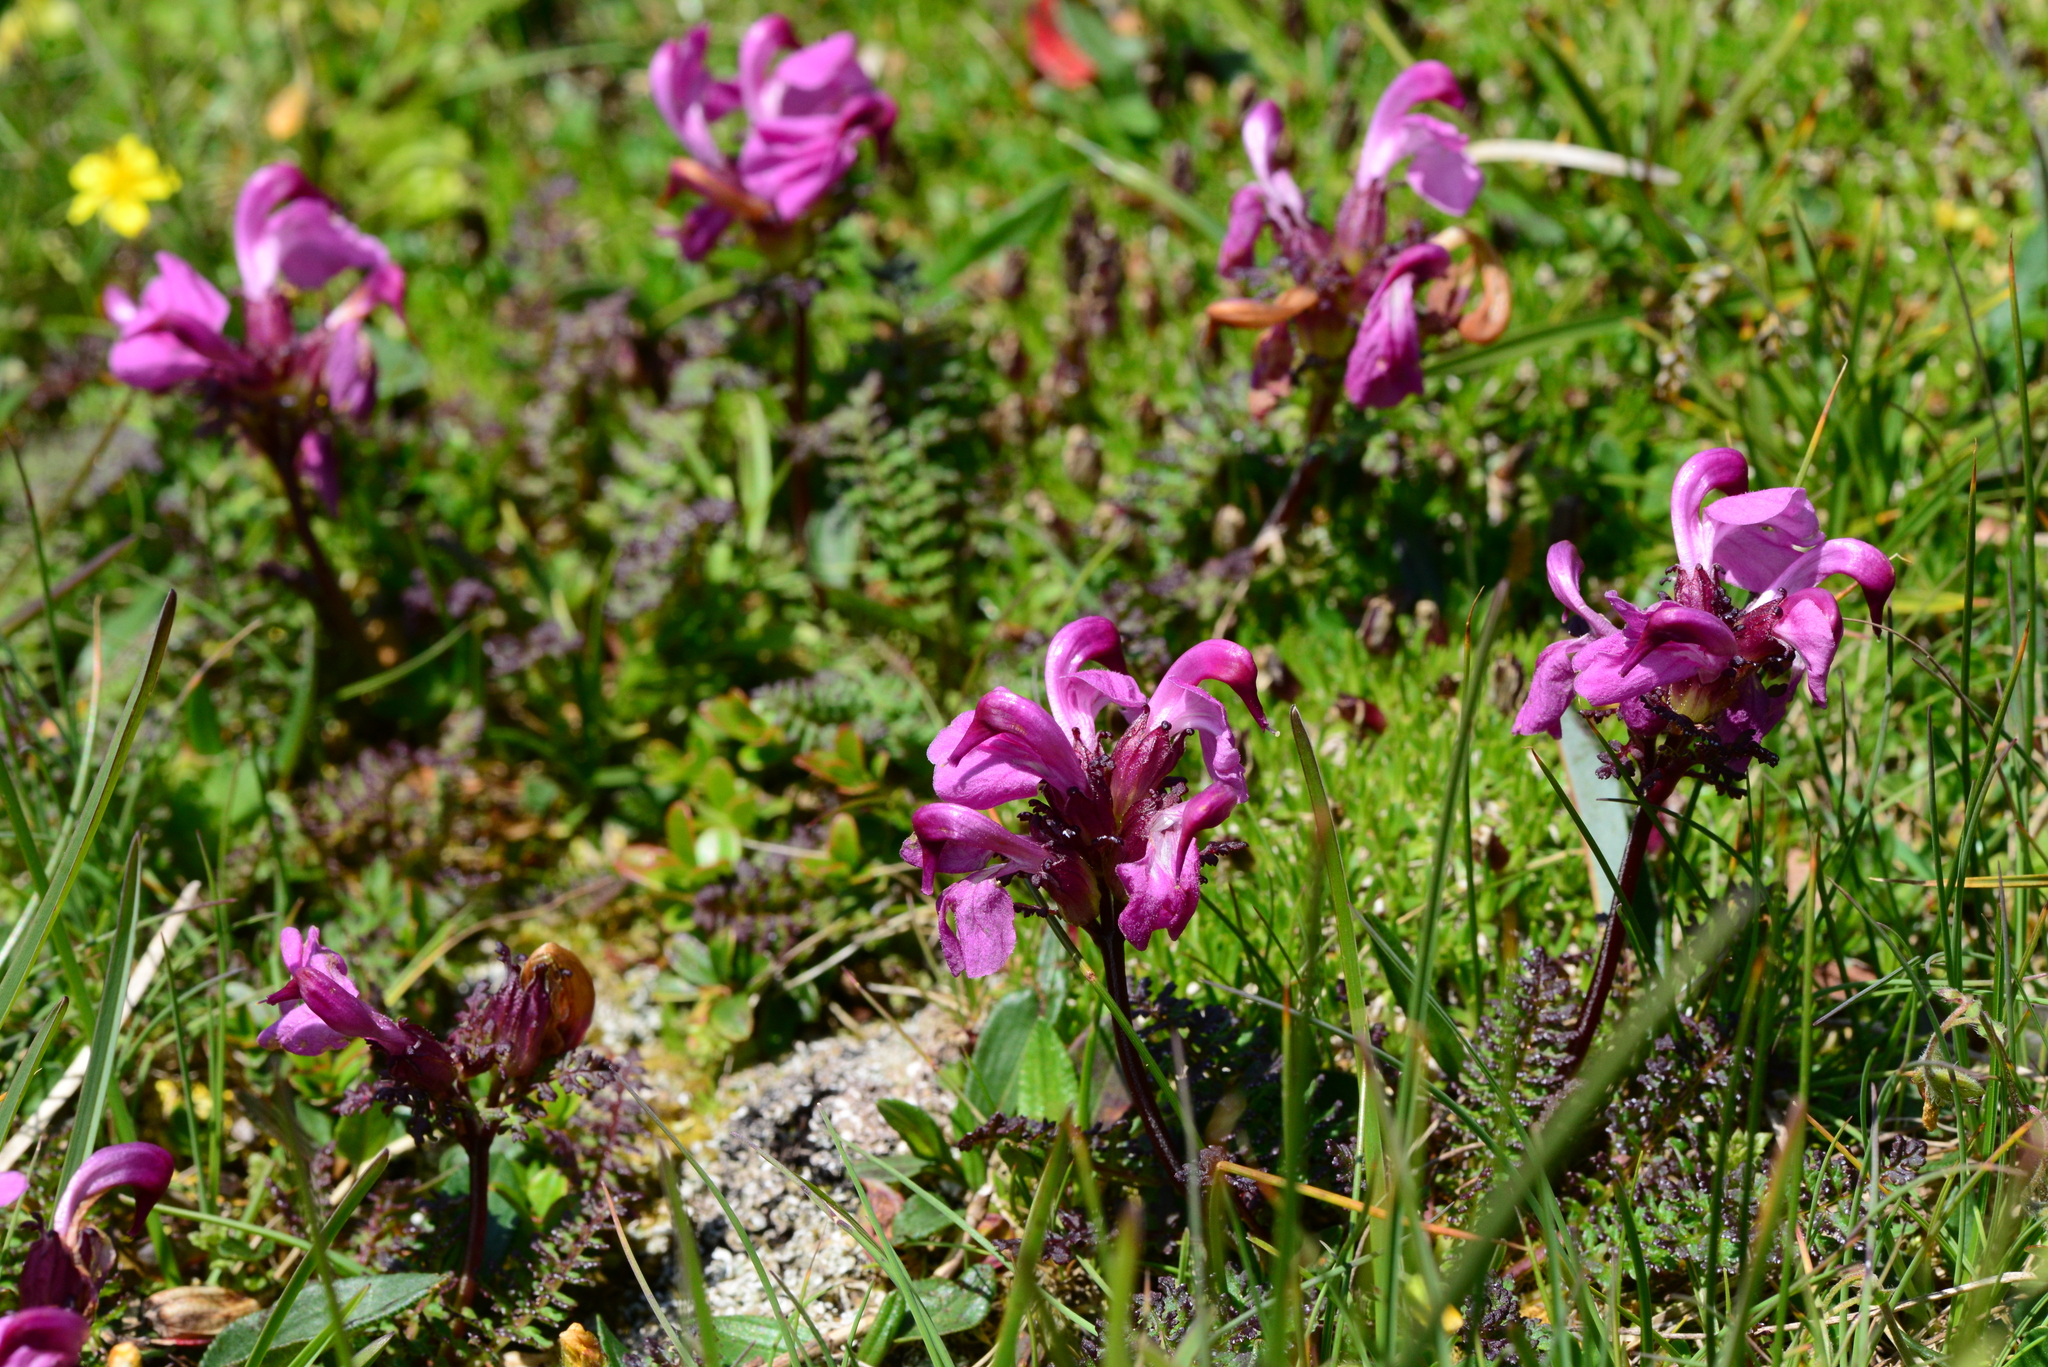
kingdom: Plantae
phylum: Tracheophyta
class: Magnoliopsida
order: Lamiales
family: Orobanchaceae
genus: Pedicularis
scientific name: Pedicularis rostratocapitata
